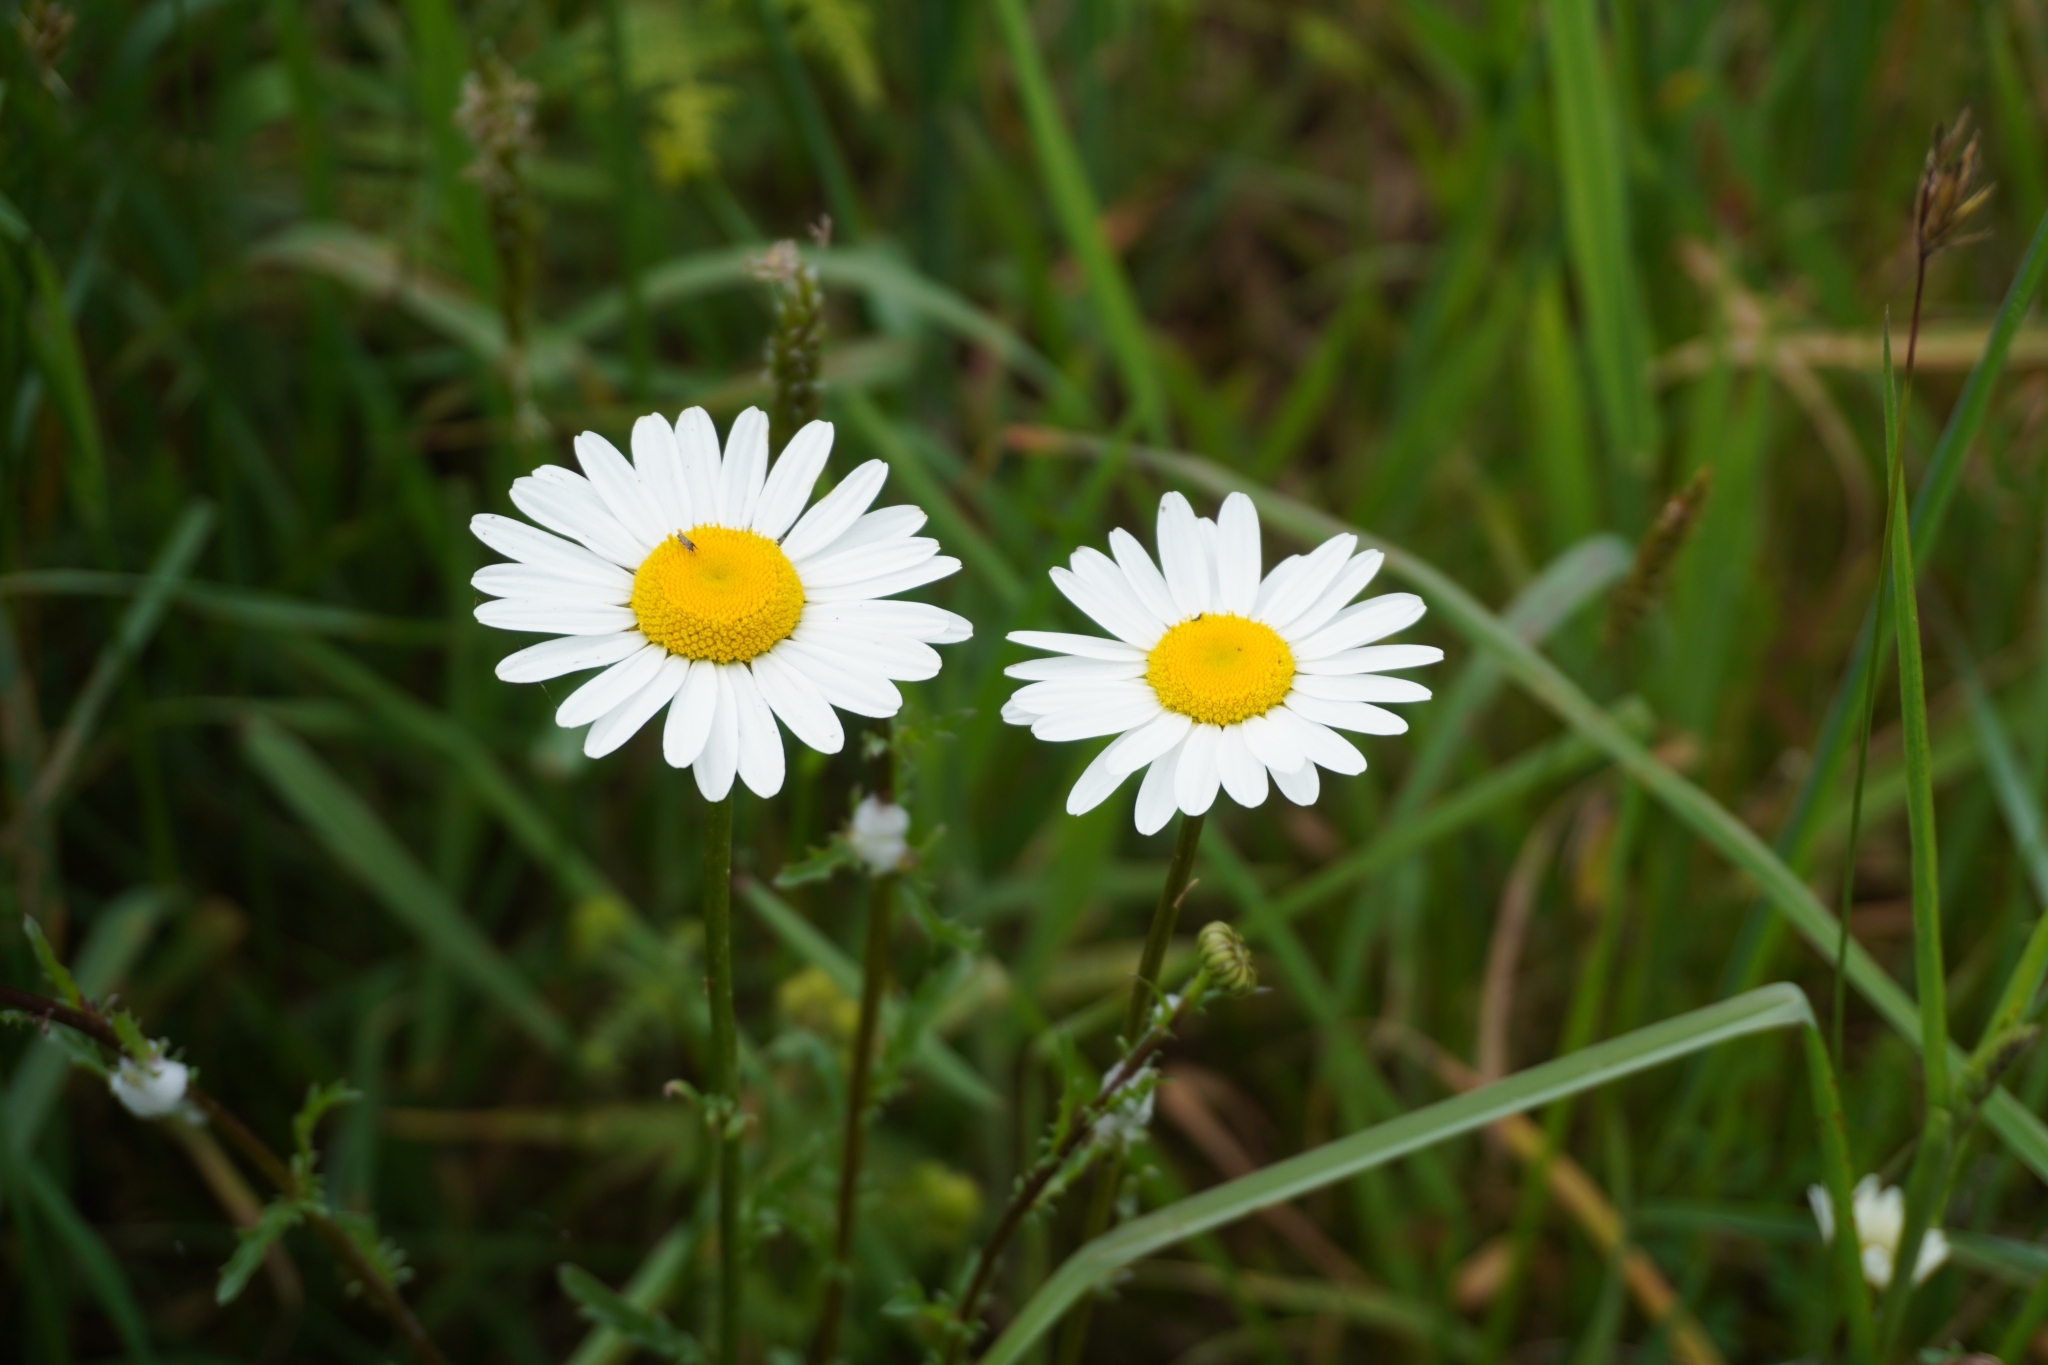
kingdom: Plantae
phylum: Tracheophyta
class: Magnoliopsida
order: Asterales
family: Asteraceae
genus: Leucanthemum
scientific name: Leucanthemum vulgare
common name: Oxeye daisy
